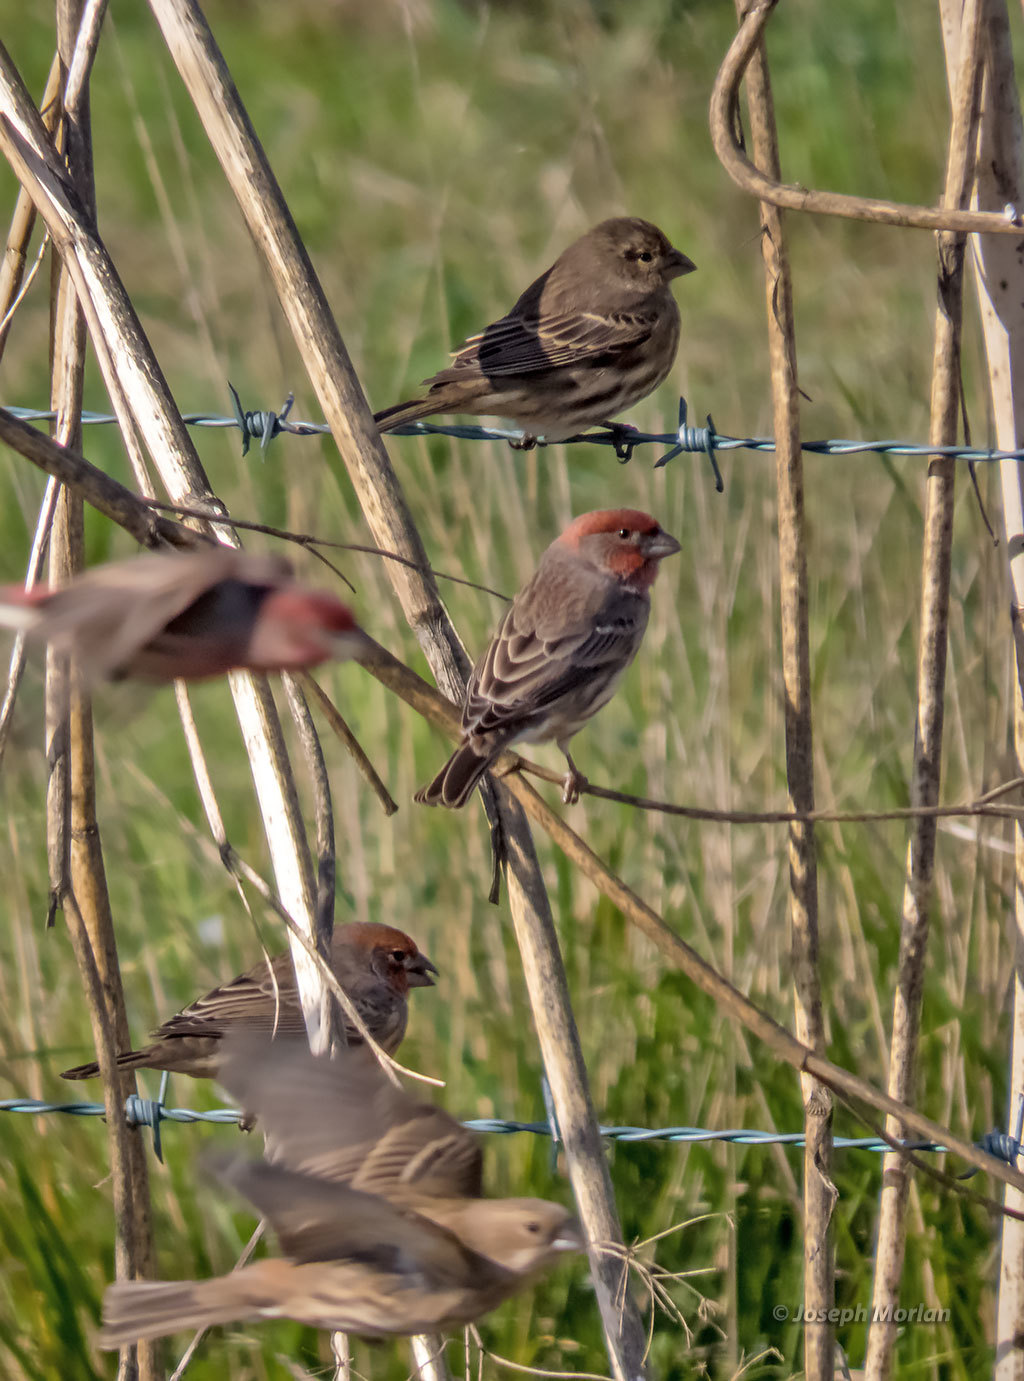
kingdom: Animalia
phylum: Chordata
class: Aves
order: Passeriformes
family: Fringillidae
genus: Haemorhous
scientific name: Haemorhous mexicanus
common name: House finch
